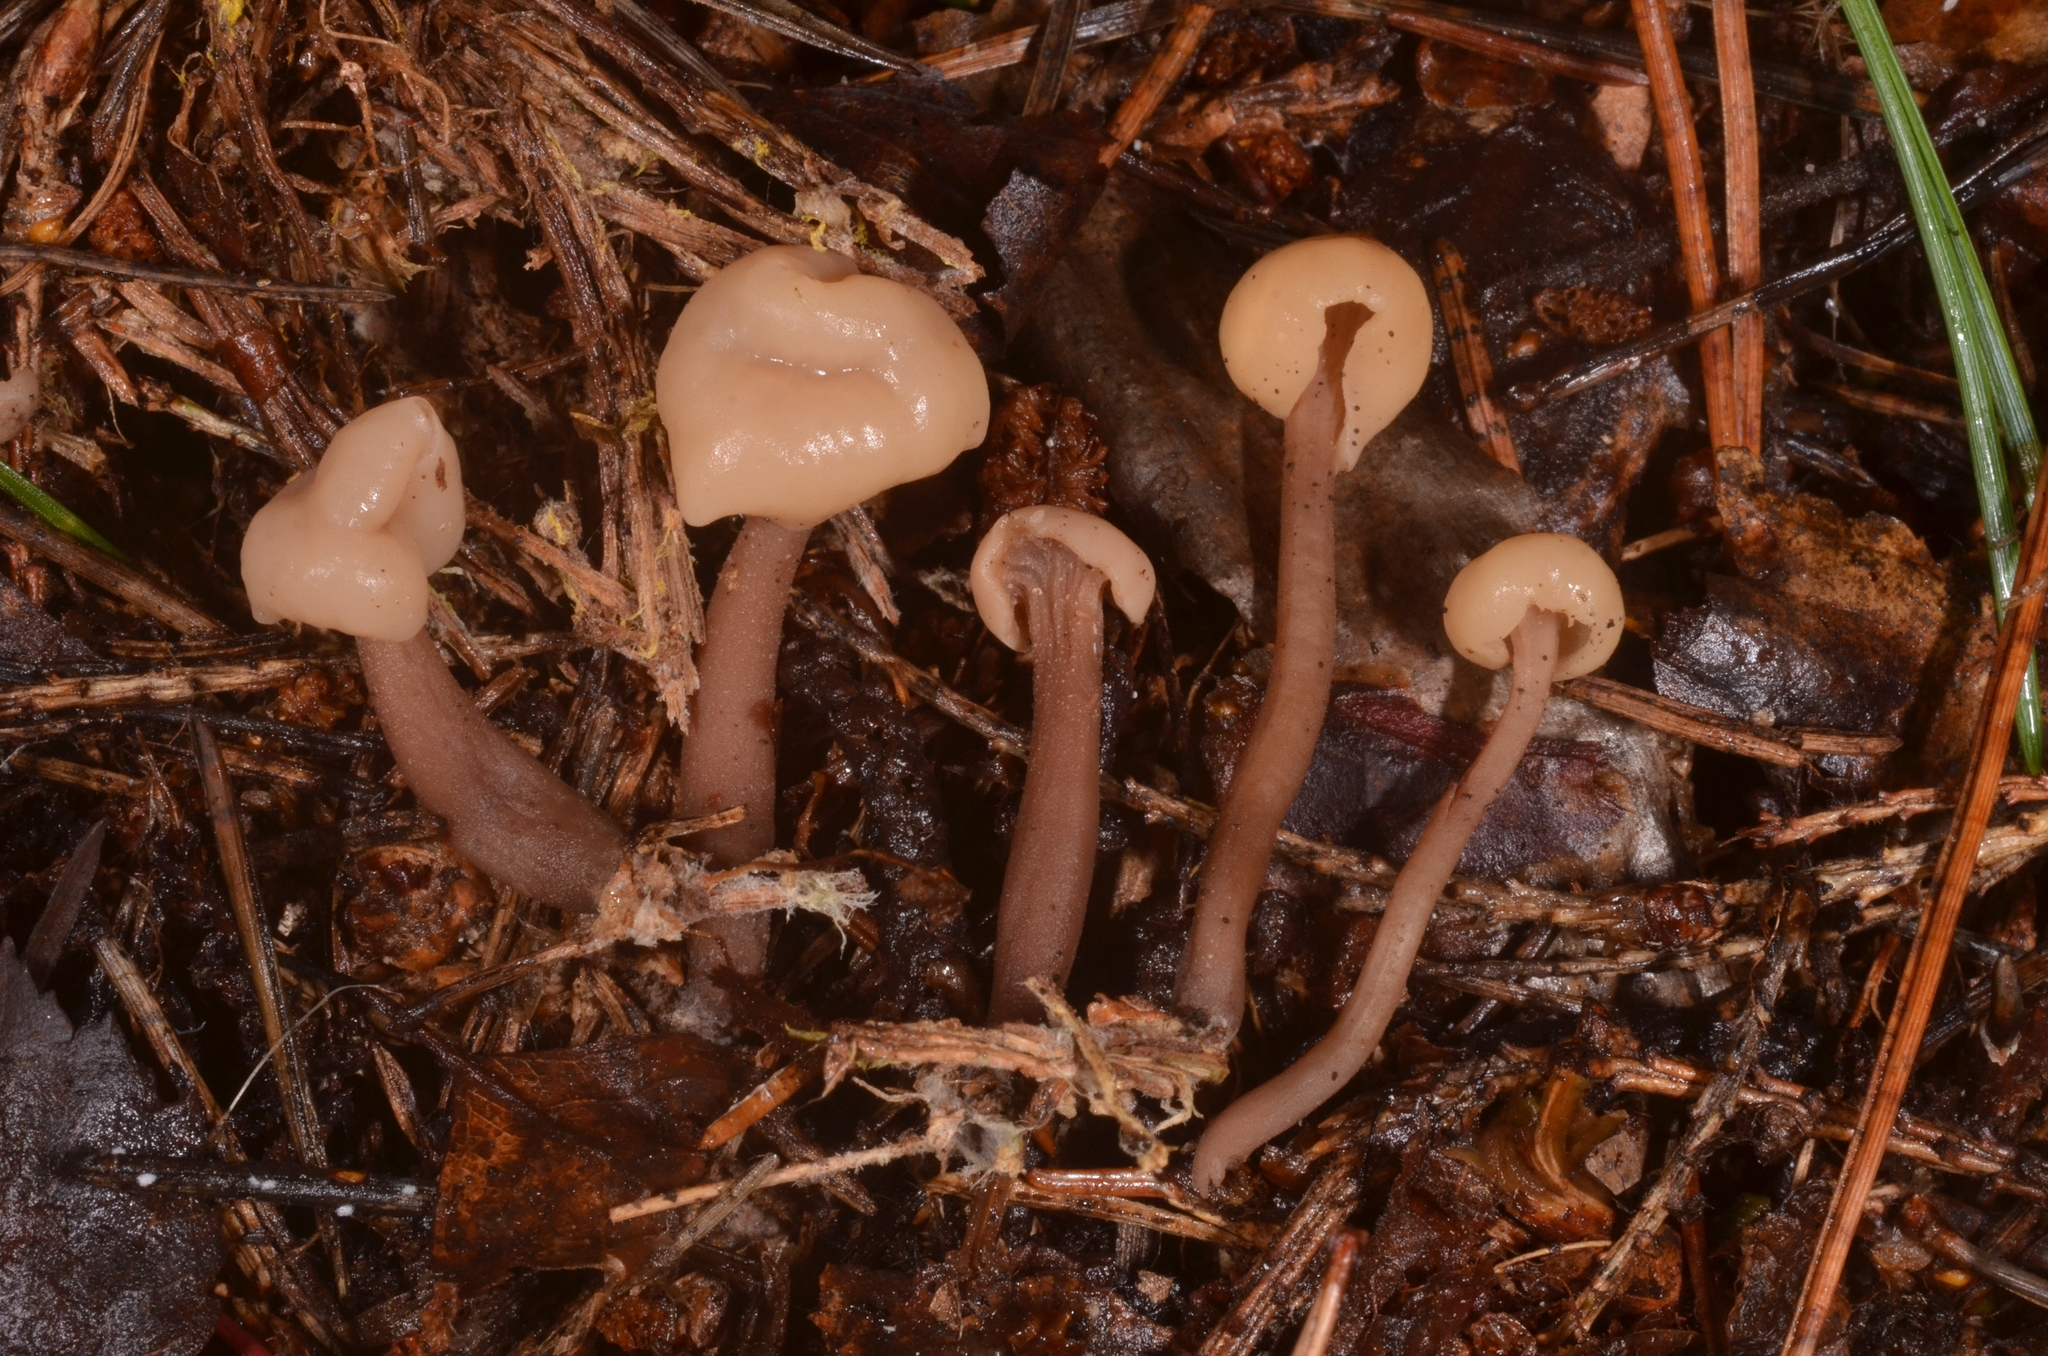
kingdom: Fungi
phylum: Ascomycota
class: Leotiomycetes
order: Rhytismatales
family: Cudoniaceae
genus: Cudonia
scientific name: Cudonia circinans
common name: Redleg jellybaby
